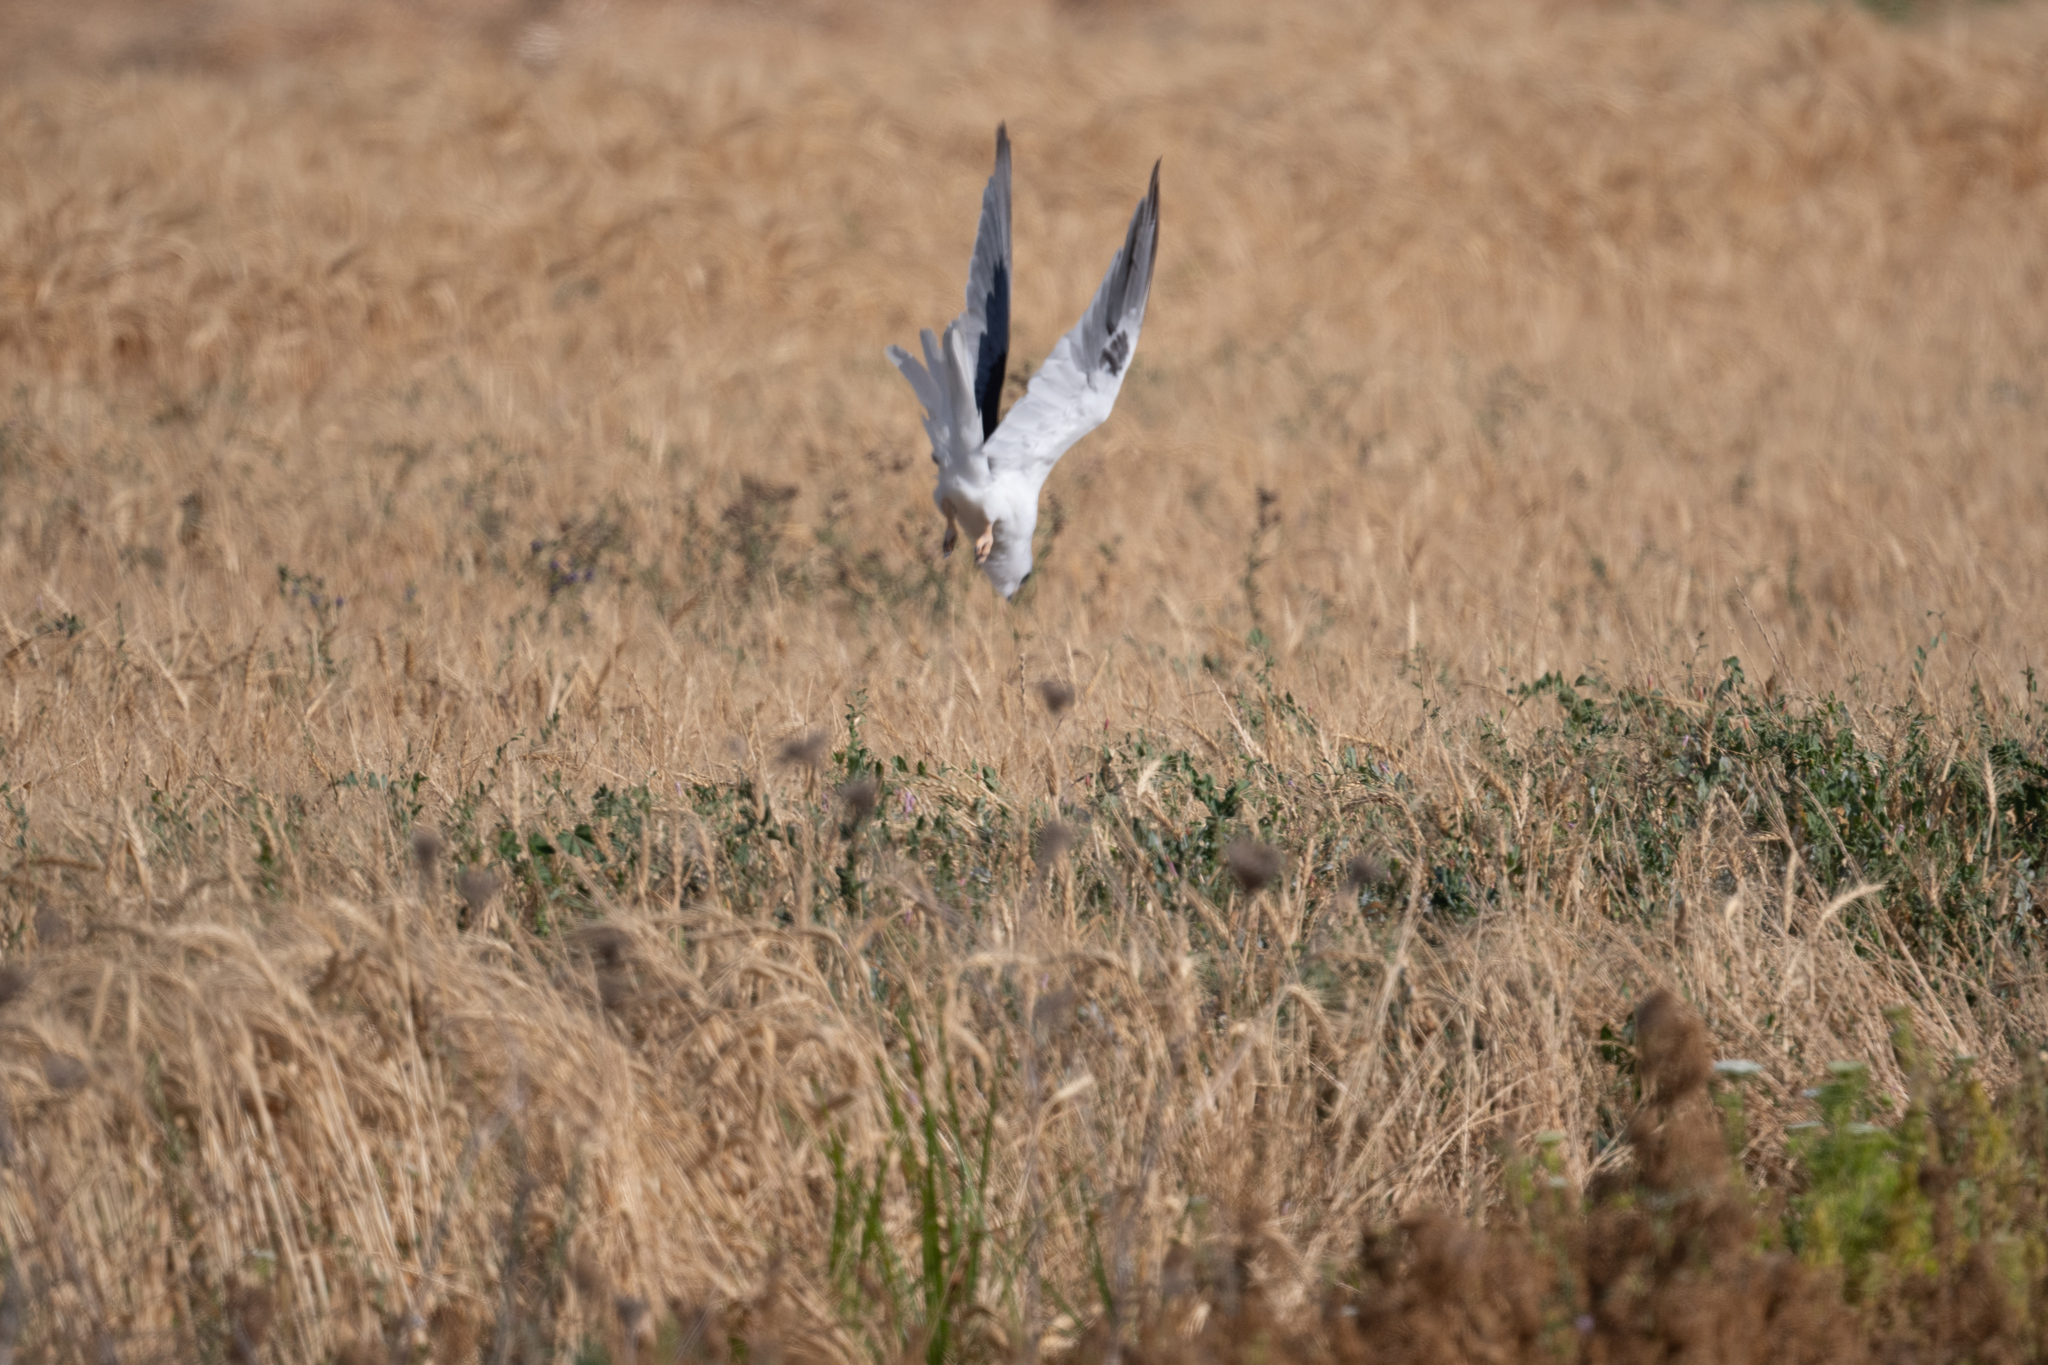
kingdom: Animalia
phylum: Chordata
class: Aves
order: Accipitriformes
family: Accipitridae
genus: Elanus
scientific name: Elanus leucurus
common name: White-tailed kite
